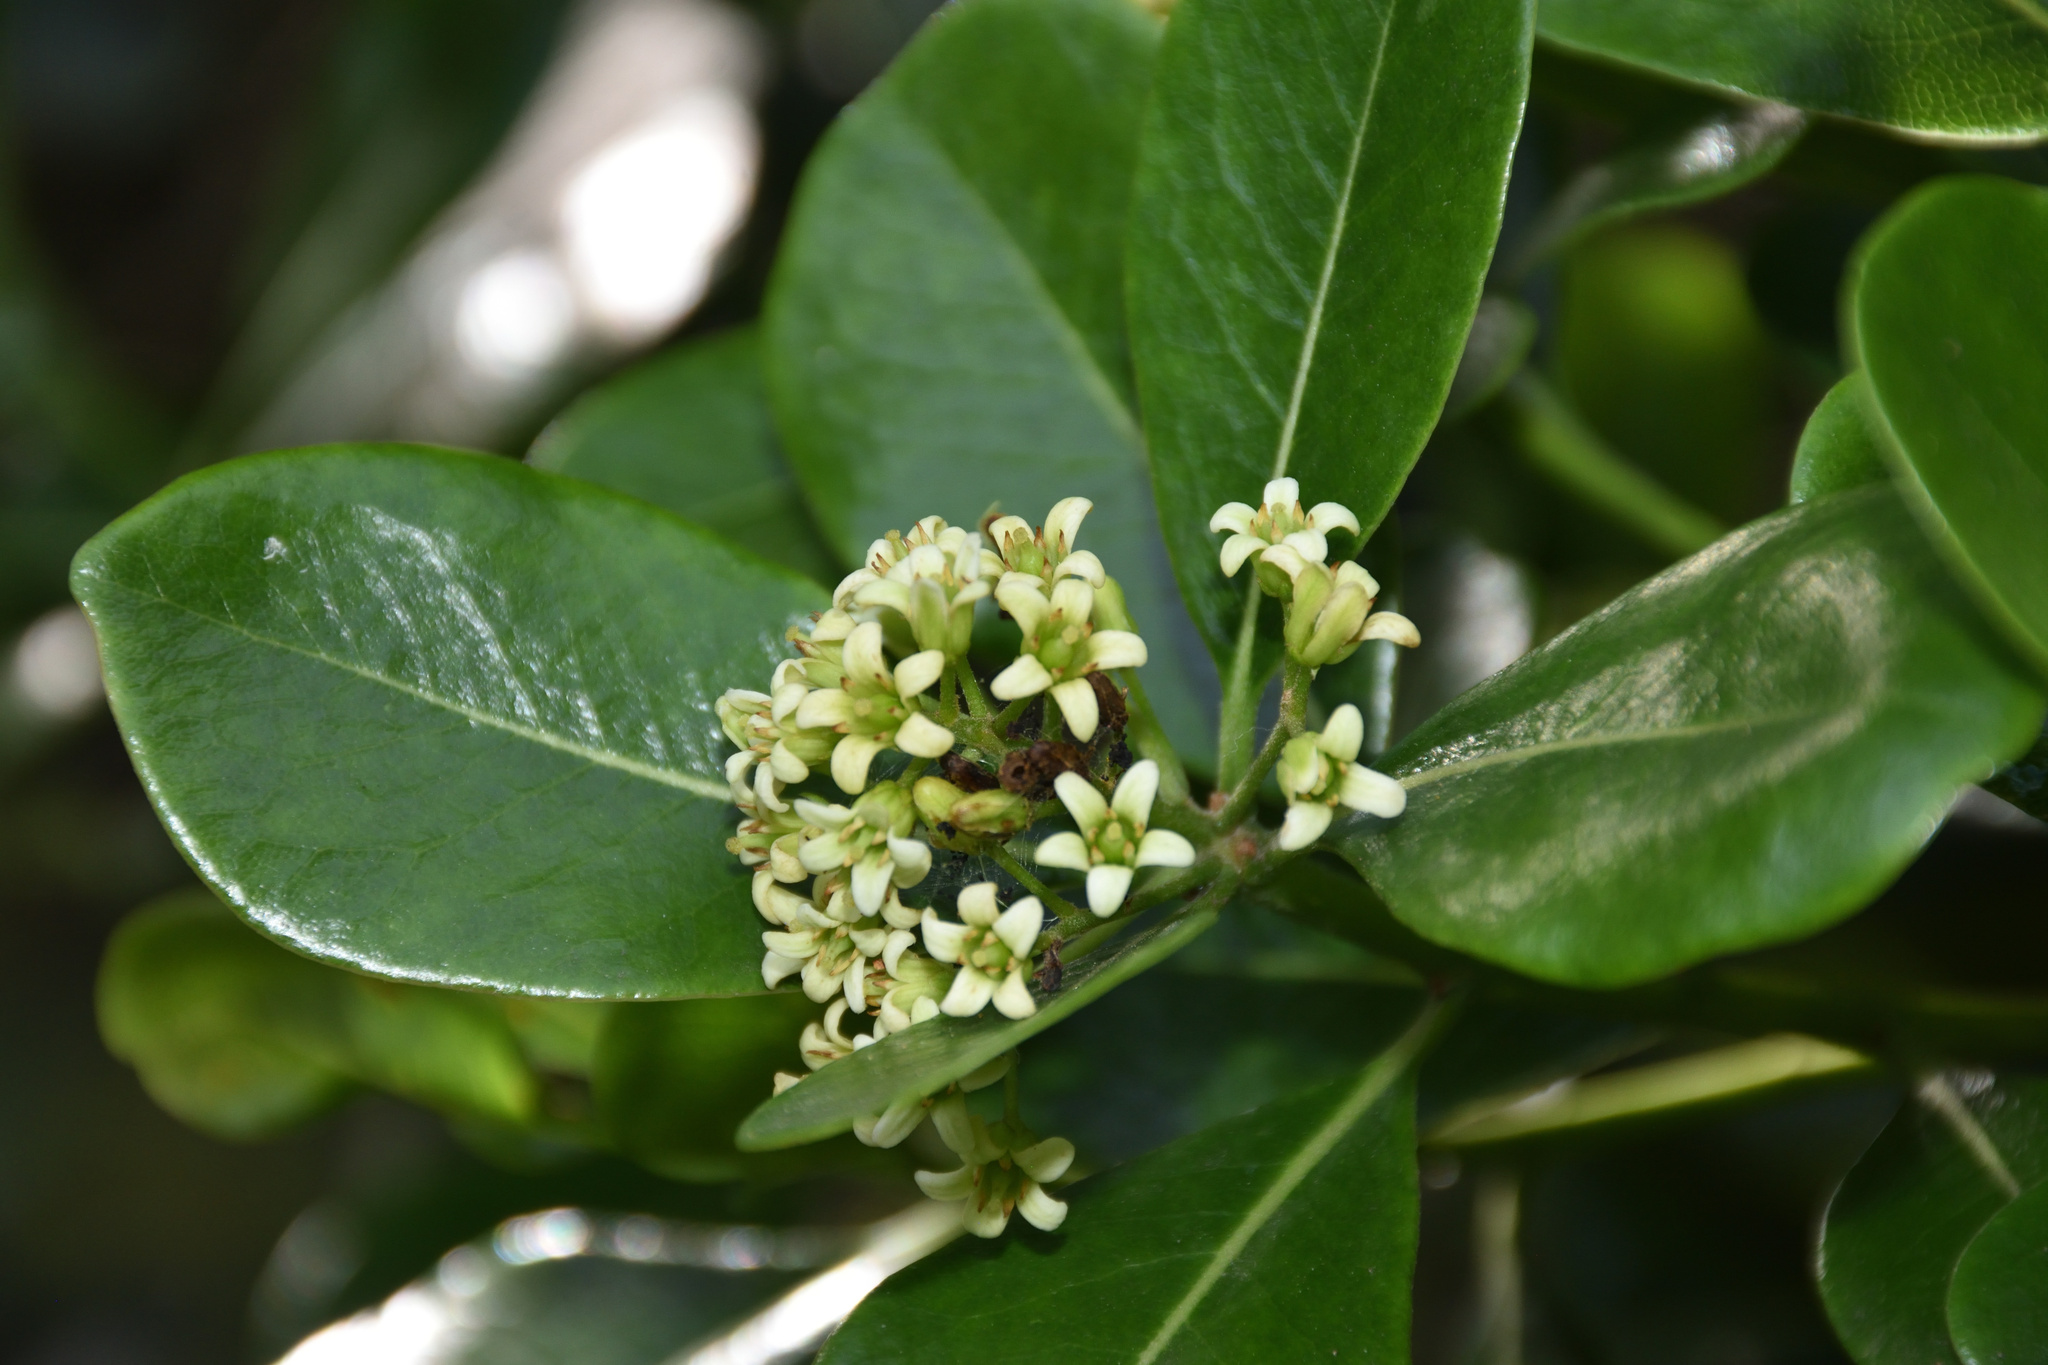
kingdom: Plantae
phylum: Tracheophyta
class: Magnoliopsida
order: Apiales
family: Pittosporaceae
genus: Pittosporum
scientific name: Pittosporum viridiflorum
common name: Cape cheesewood
